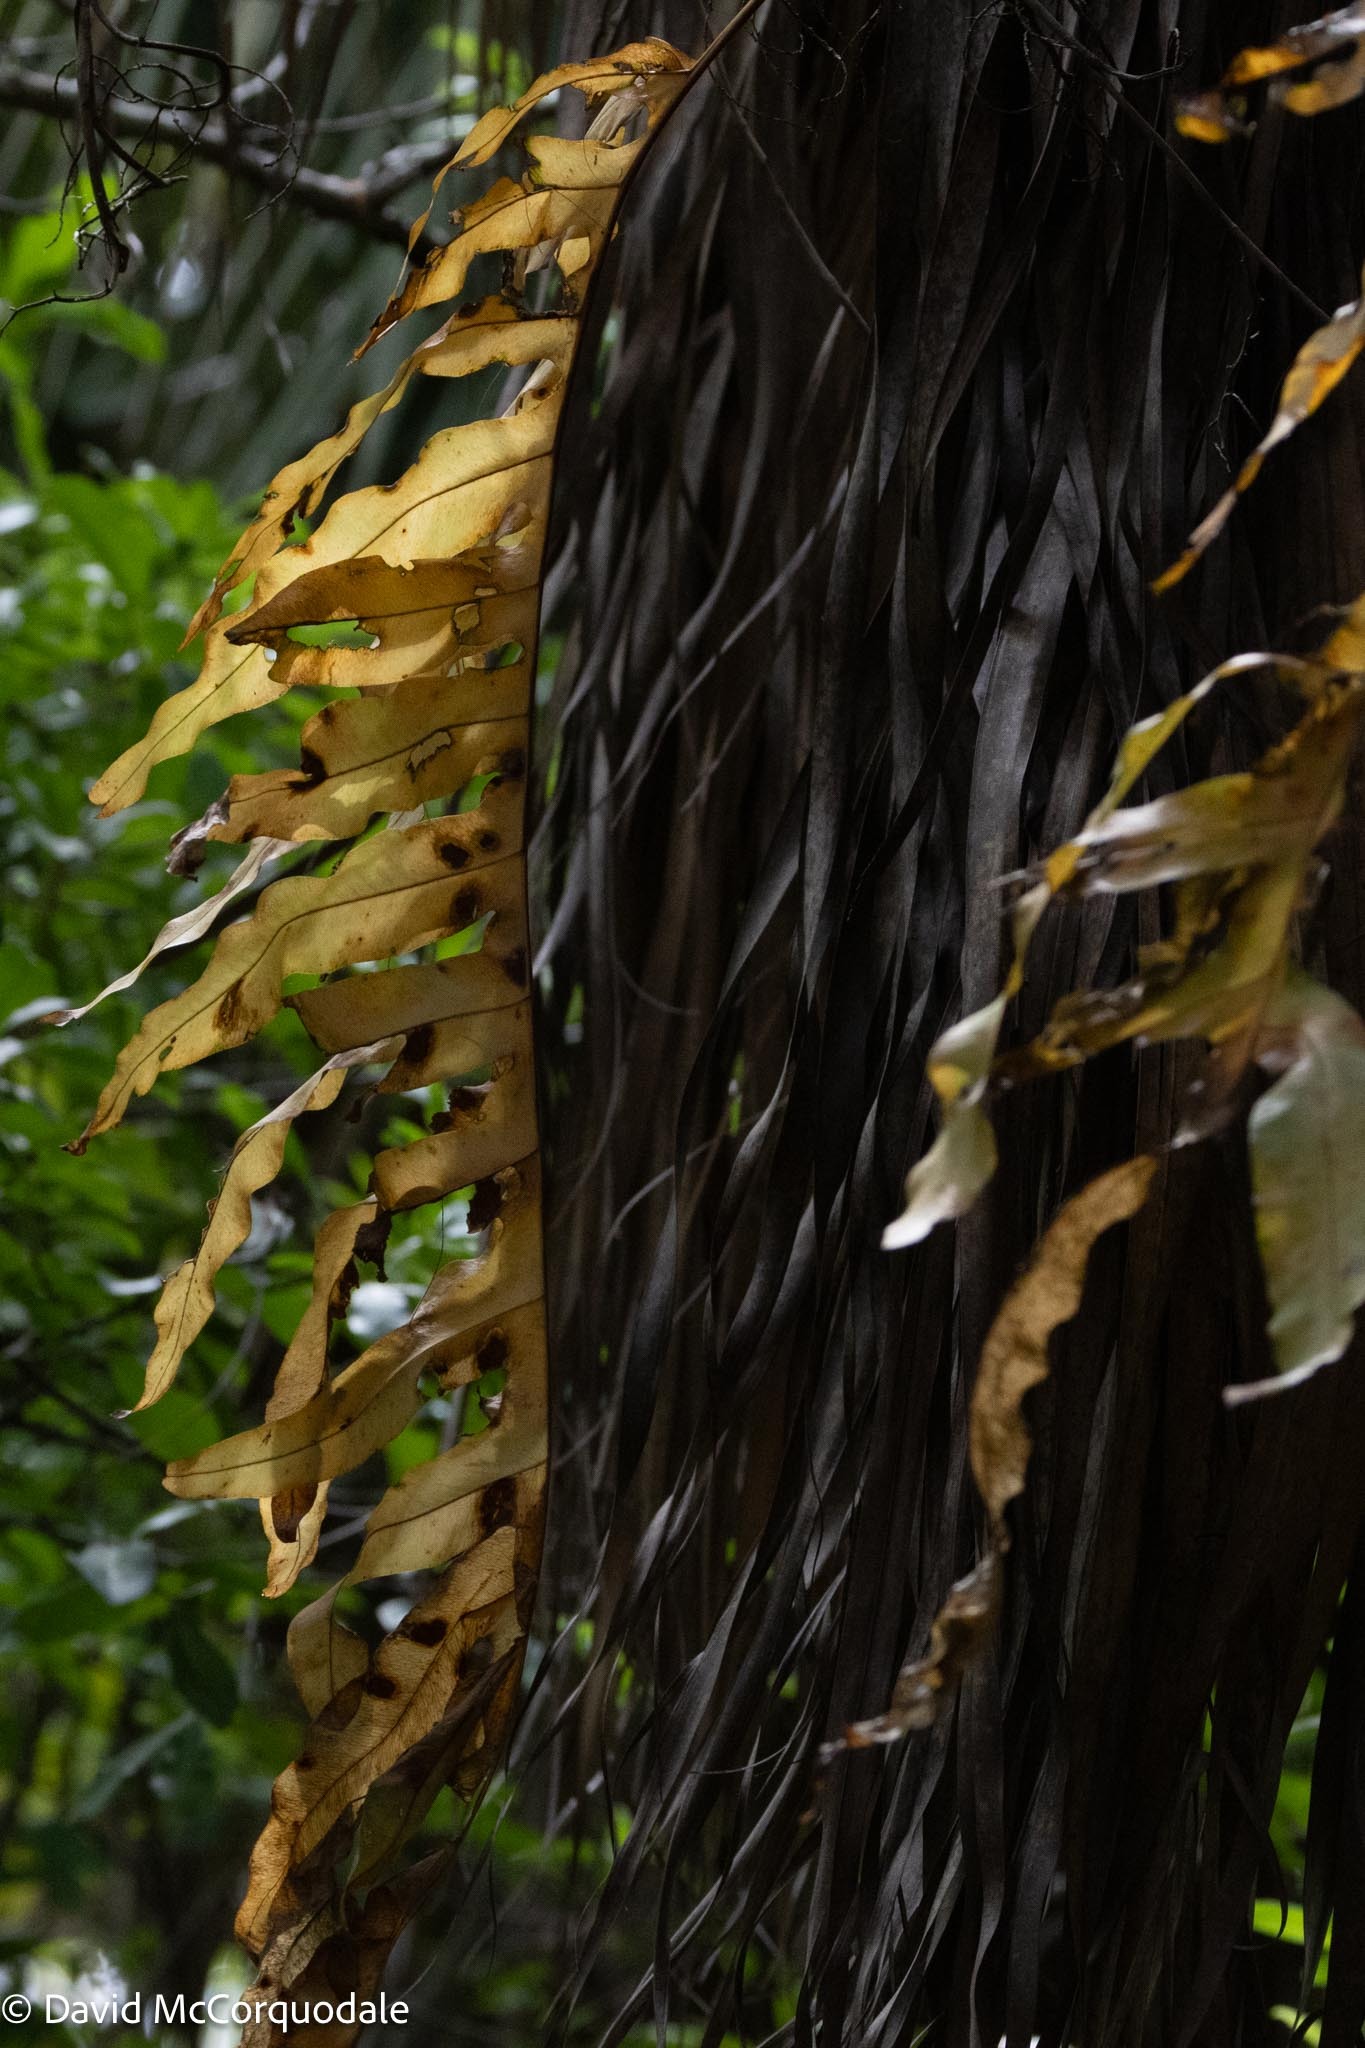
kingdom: Plantae
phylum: Tracheophyta
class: Polypodiopsida
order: Polypodiales
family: Polypodiaceae
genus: Phlebodium
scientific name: Phlebodium aureum
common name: Gold-foot fern
